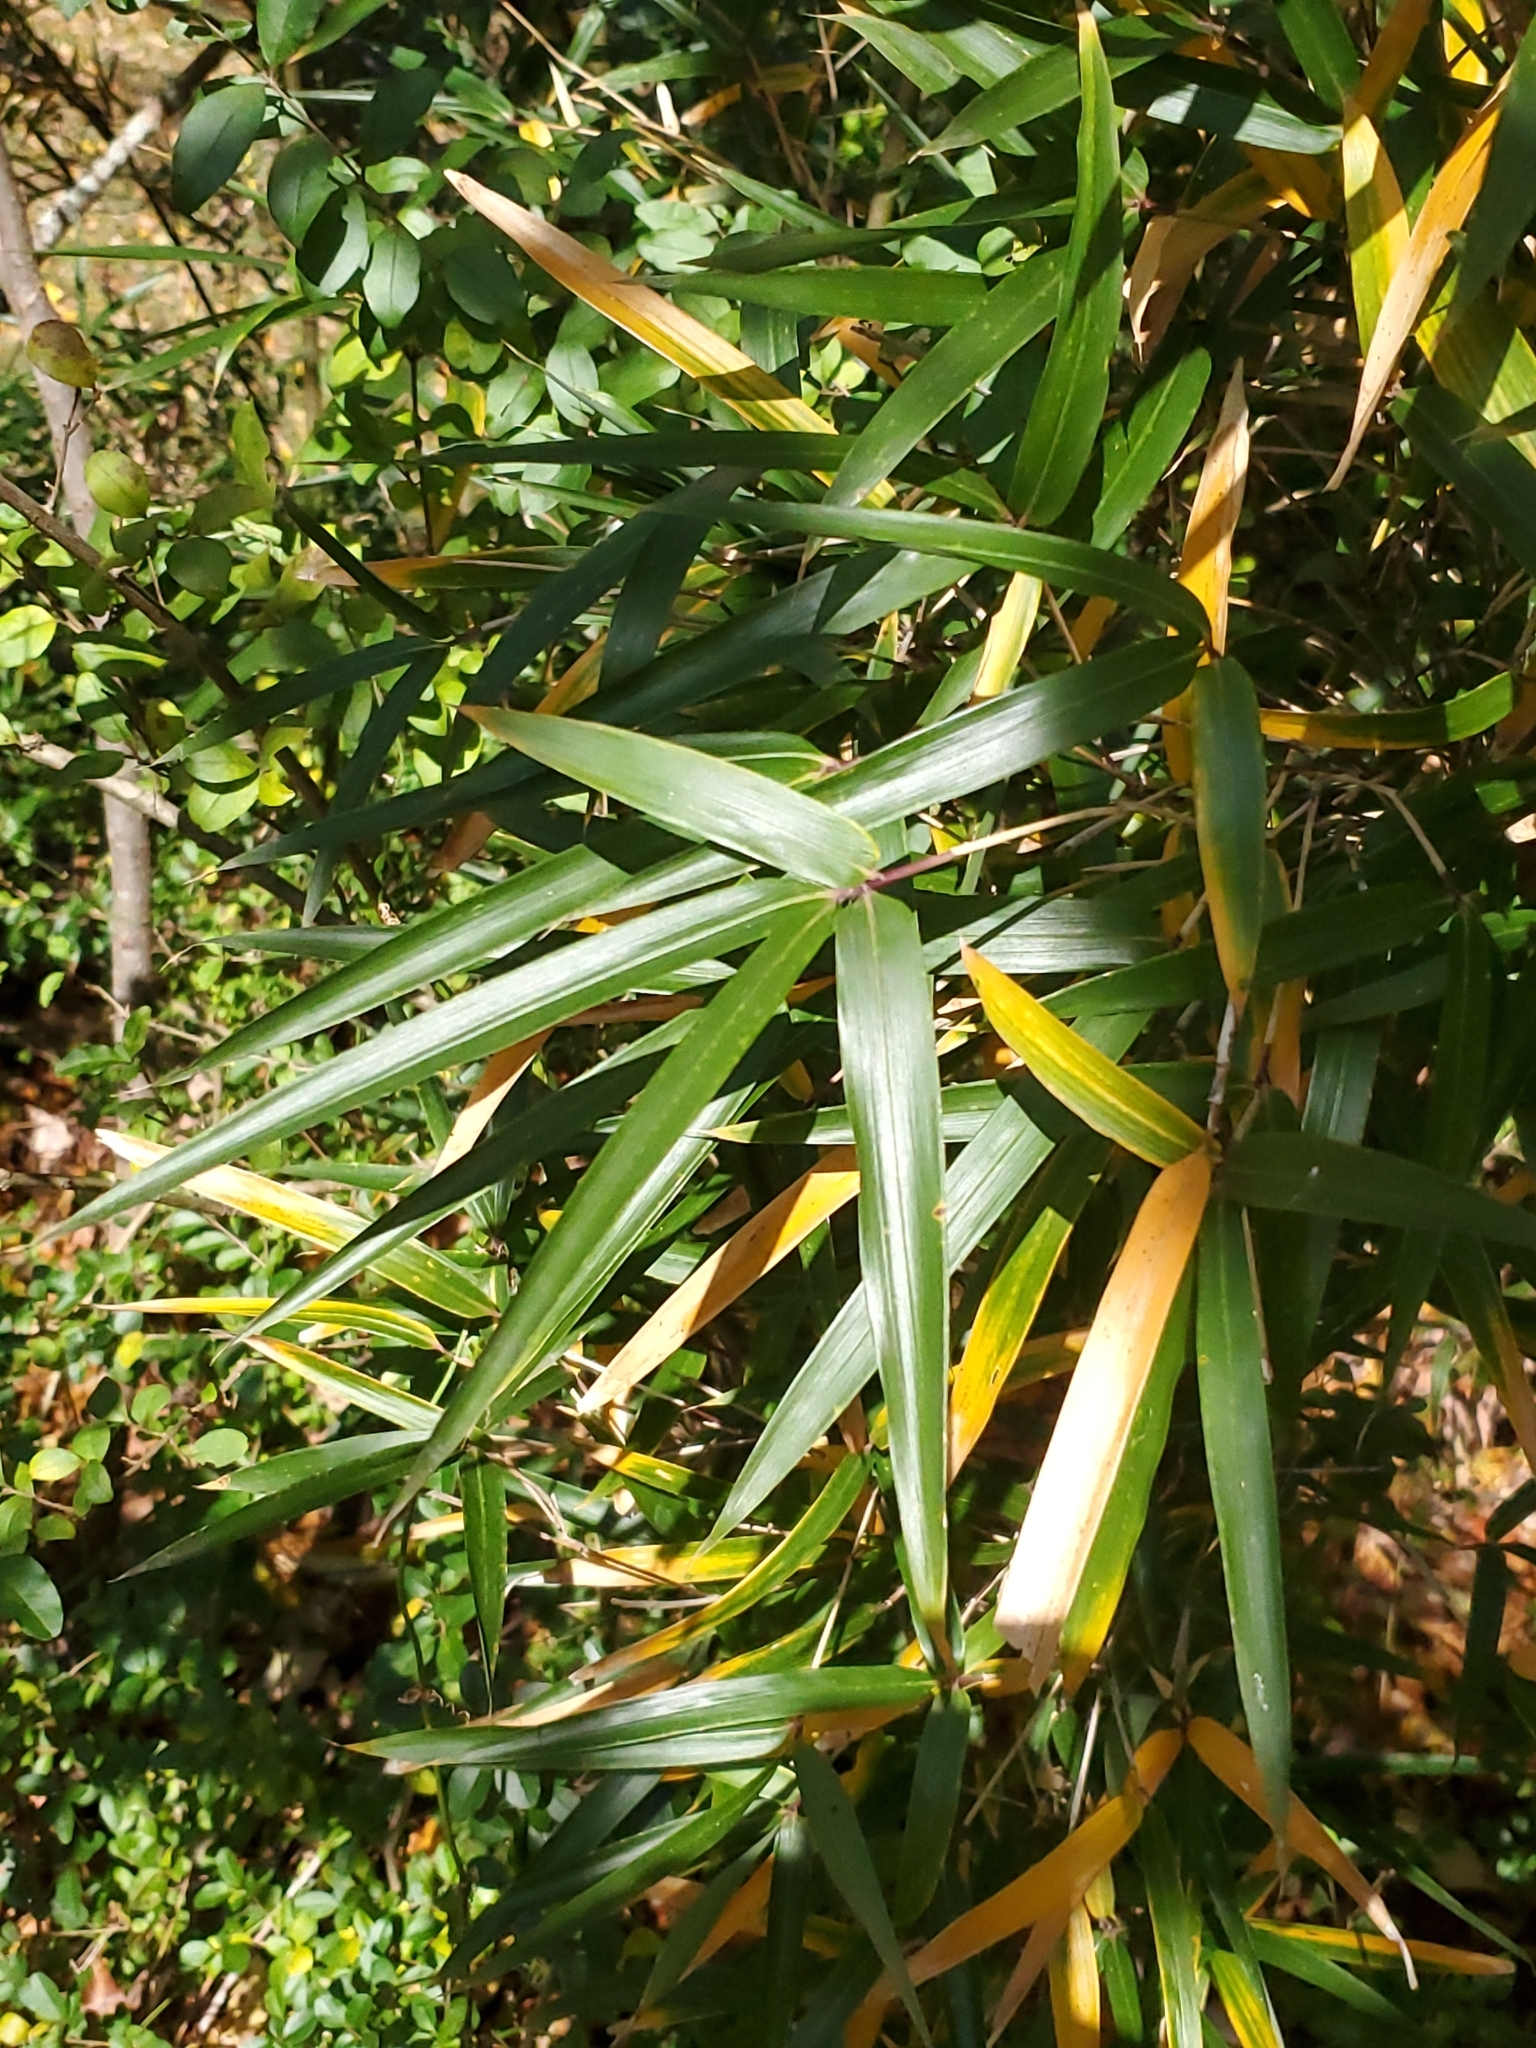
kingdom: Plantae
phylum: Tracheophyta
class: Liliopsida
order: Poales
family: Poaceae
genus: Arundinaria
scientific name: Arundinaria gigantea
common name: Giant cane
